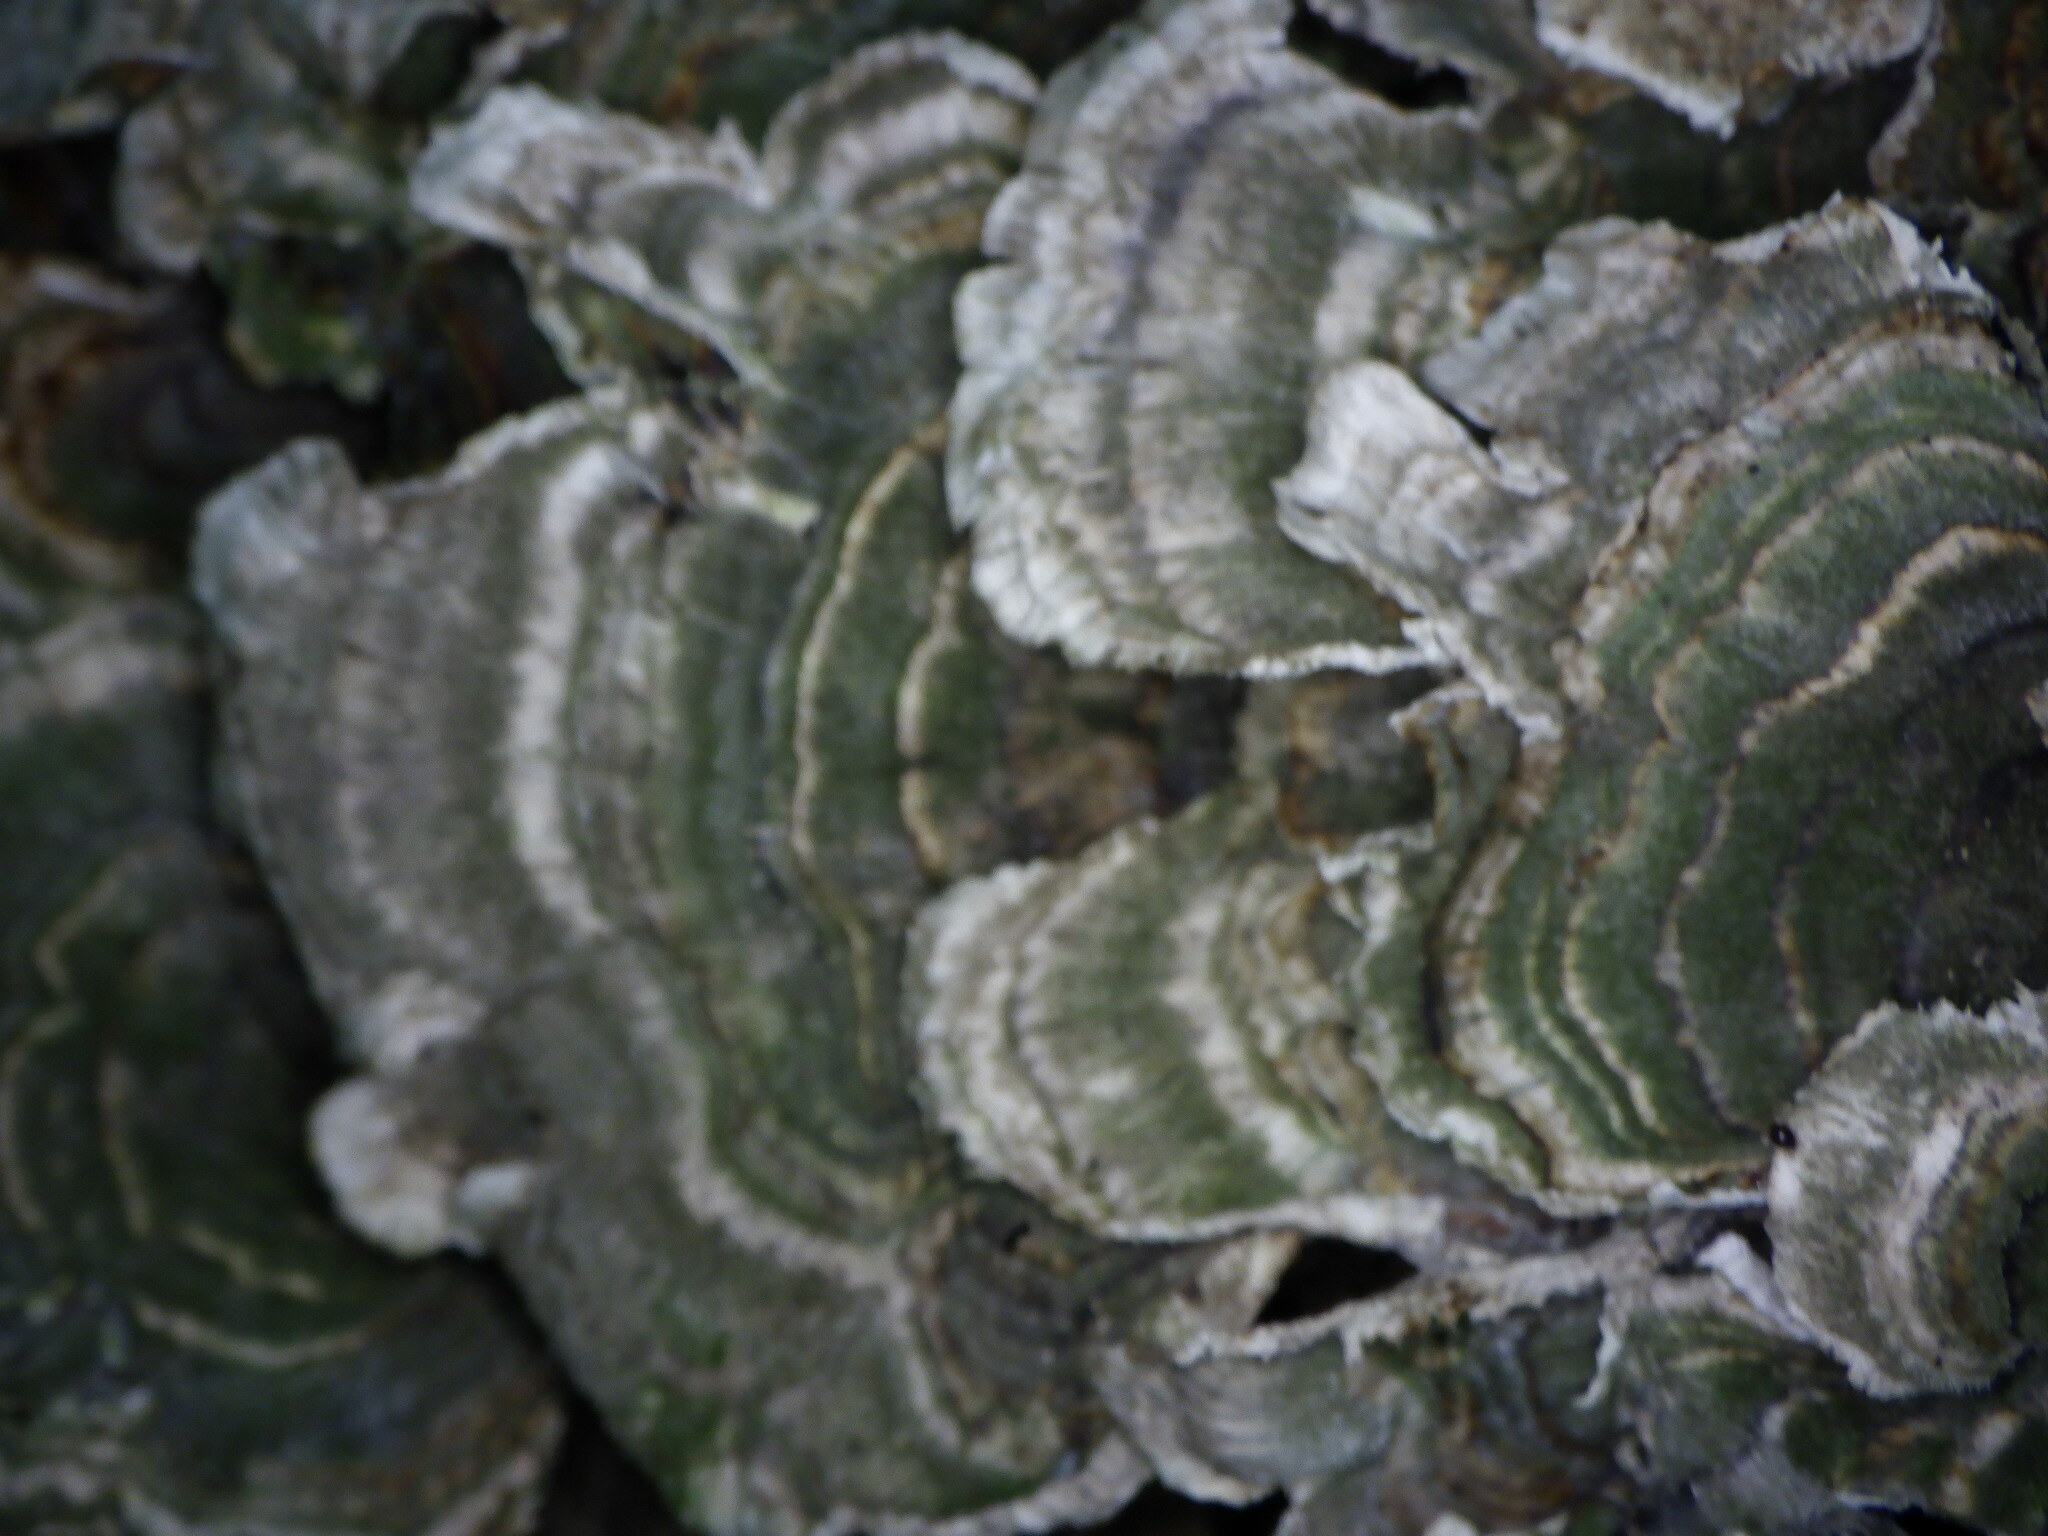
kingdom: Fungi
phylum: Basidiomycota
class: Agaricomycetes
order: Polyporales
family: Polyporaceae
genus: Trametes
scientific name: Trametes versicolor
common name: Turkeytail
